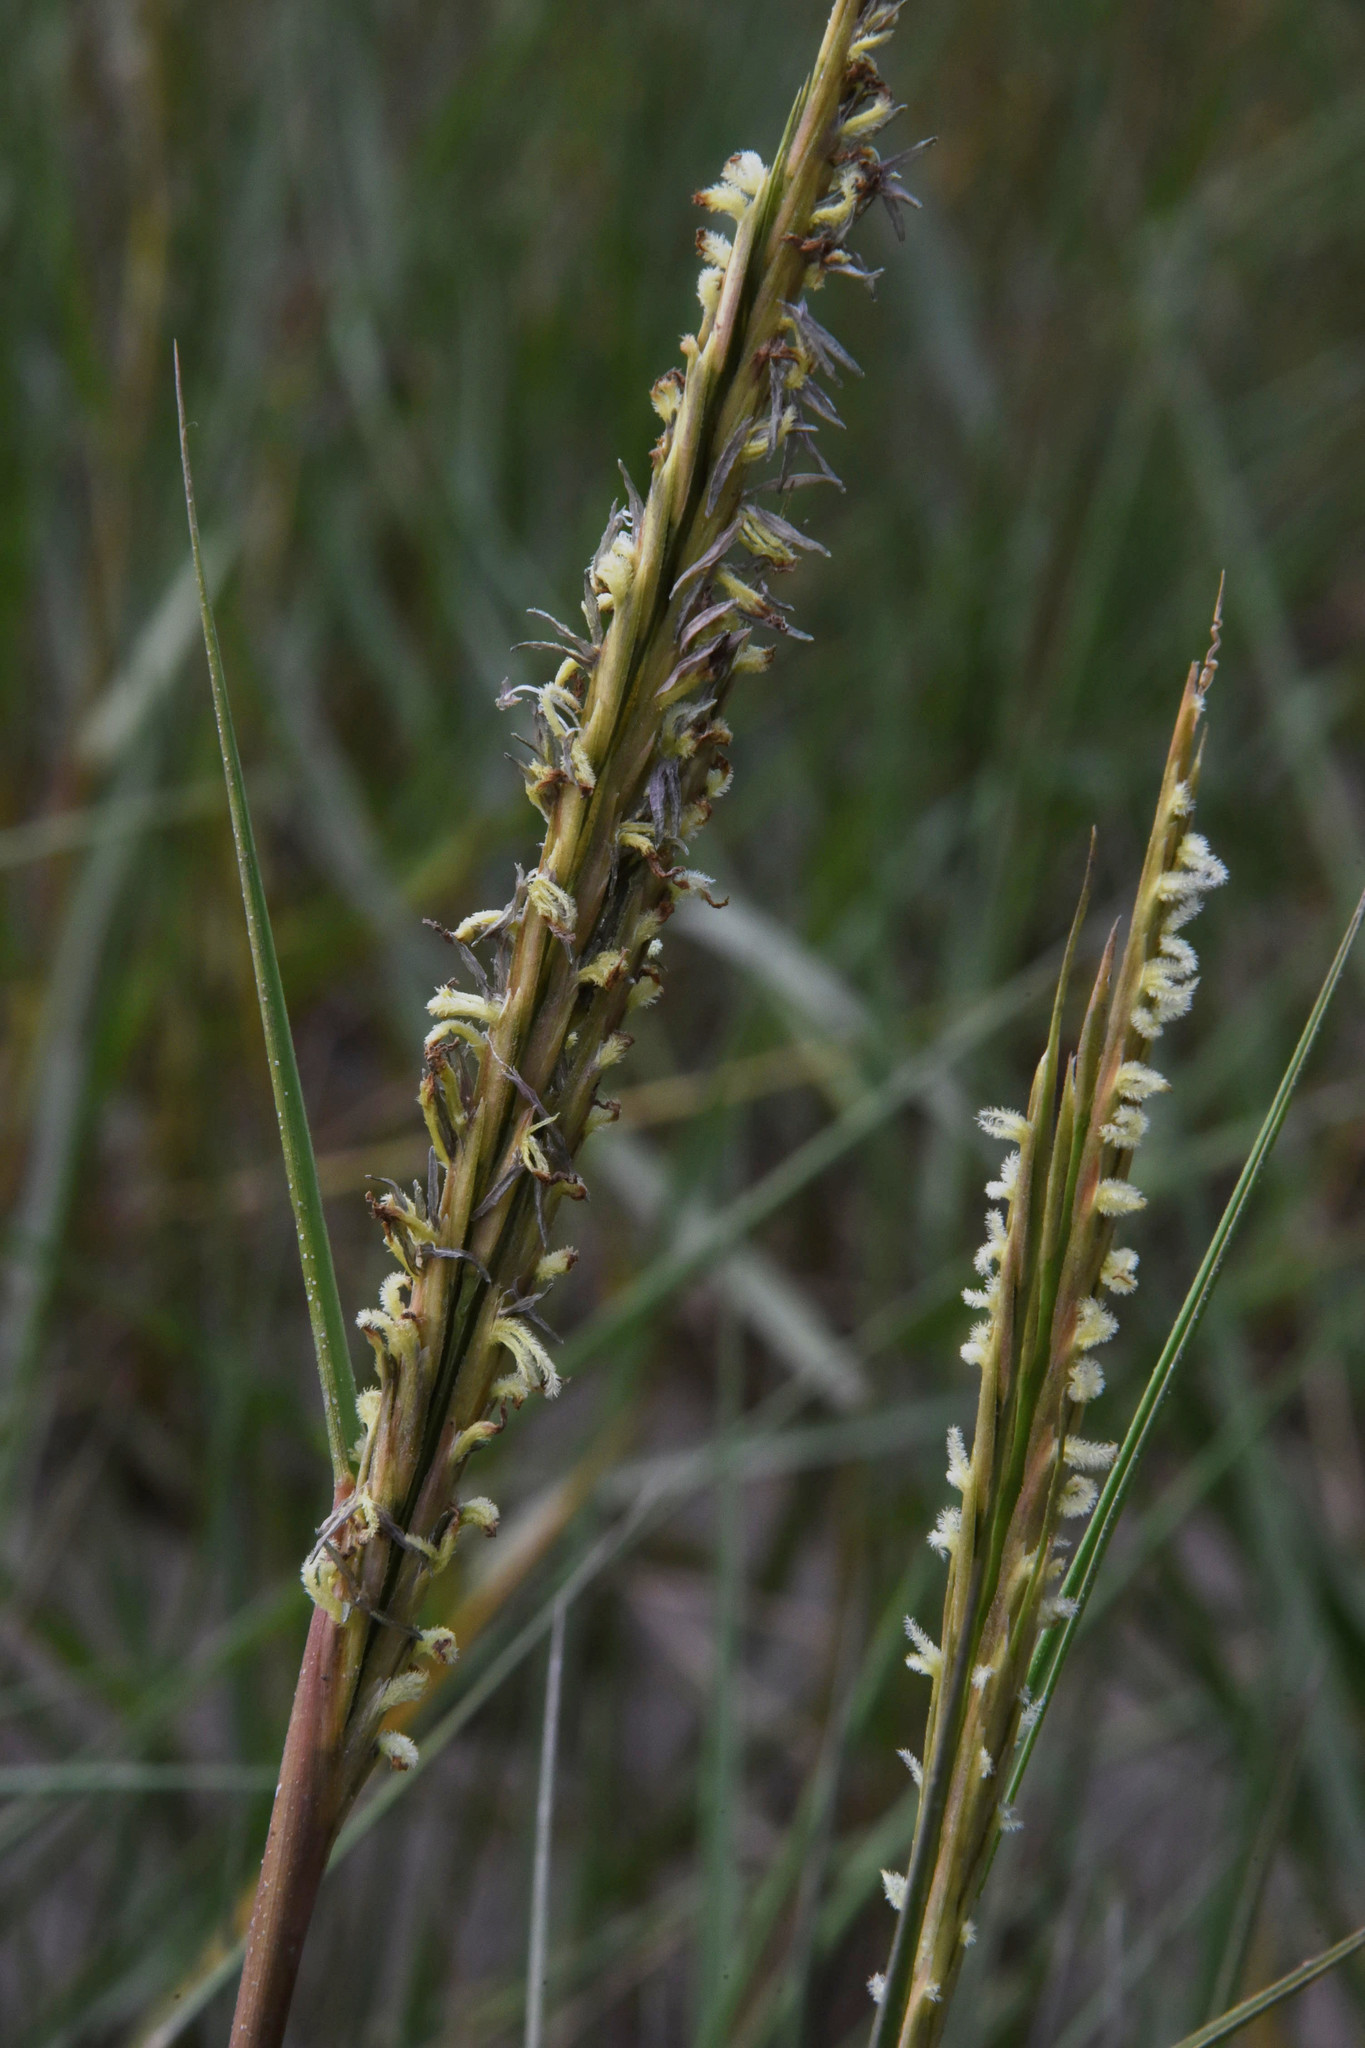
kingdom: Plantae
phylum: Tracheophyta
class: Liliopsida
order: Poales
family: Poaceae
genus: Sporobolus
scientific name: Sporobolus anglicus
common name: English cordgrass
